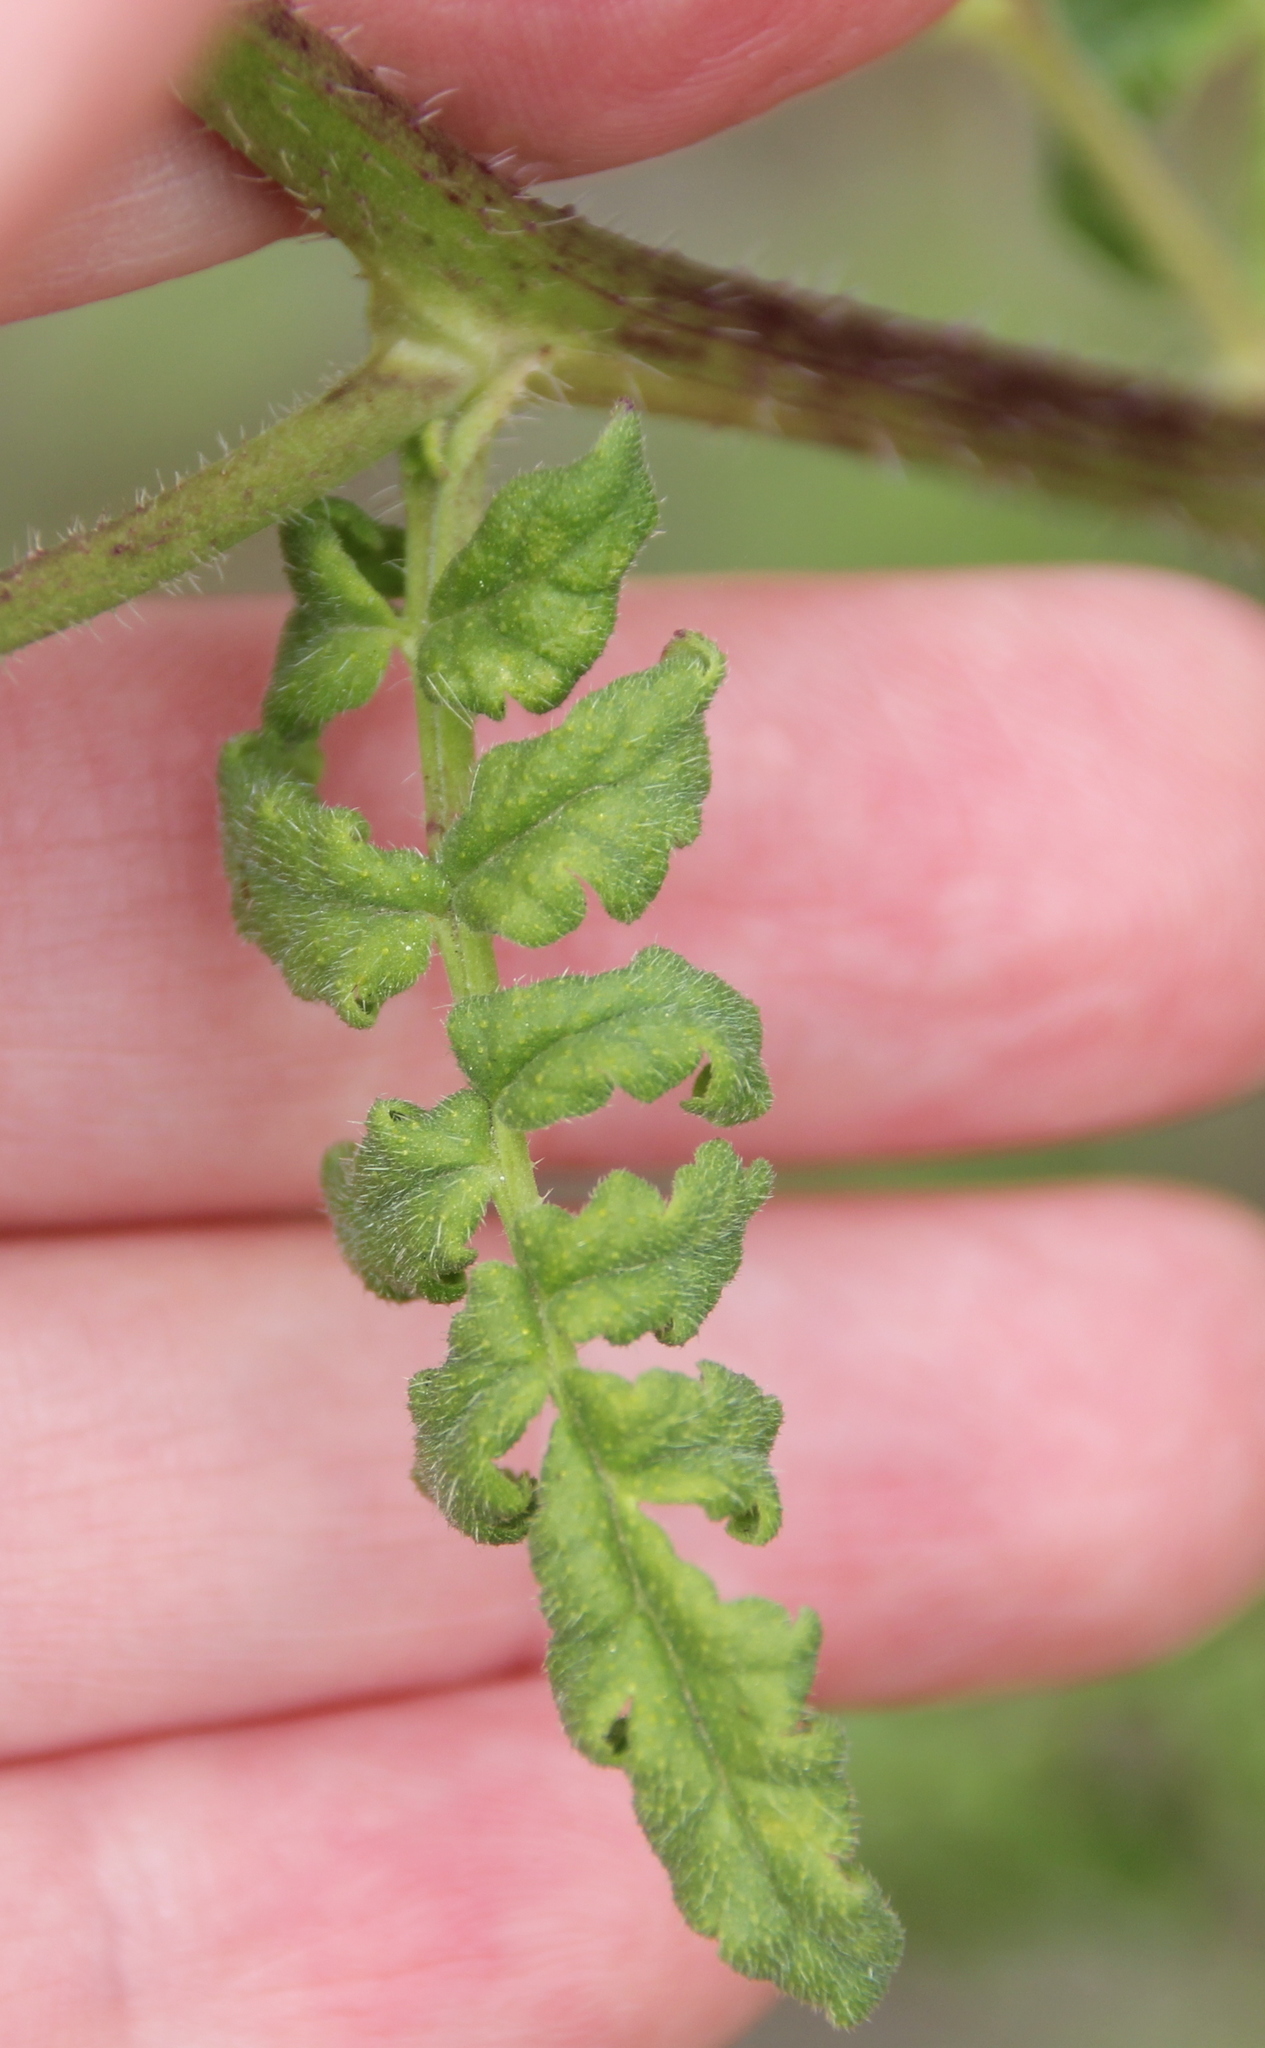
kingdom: Plantae
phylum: Tracheophyta
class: Magnoliopsida
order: Boraginales
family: Hydrophyllaceae
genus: Phacelia
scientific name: Phacelia ramosissima
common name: Branching phacelia
